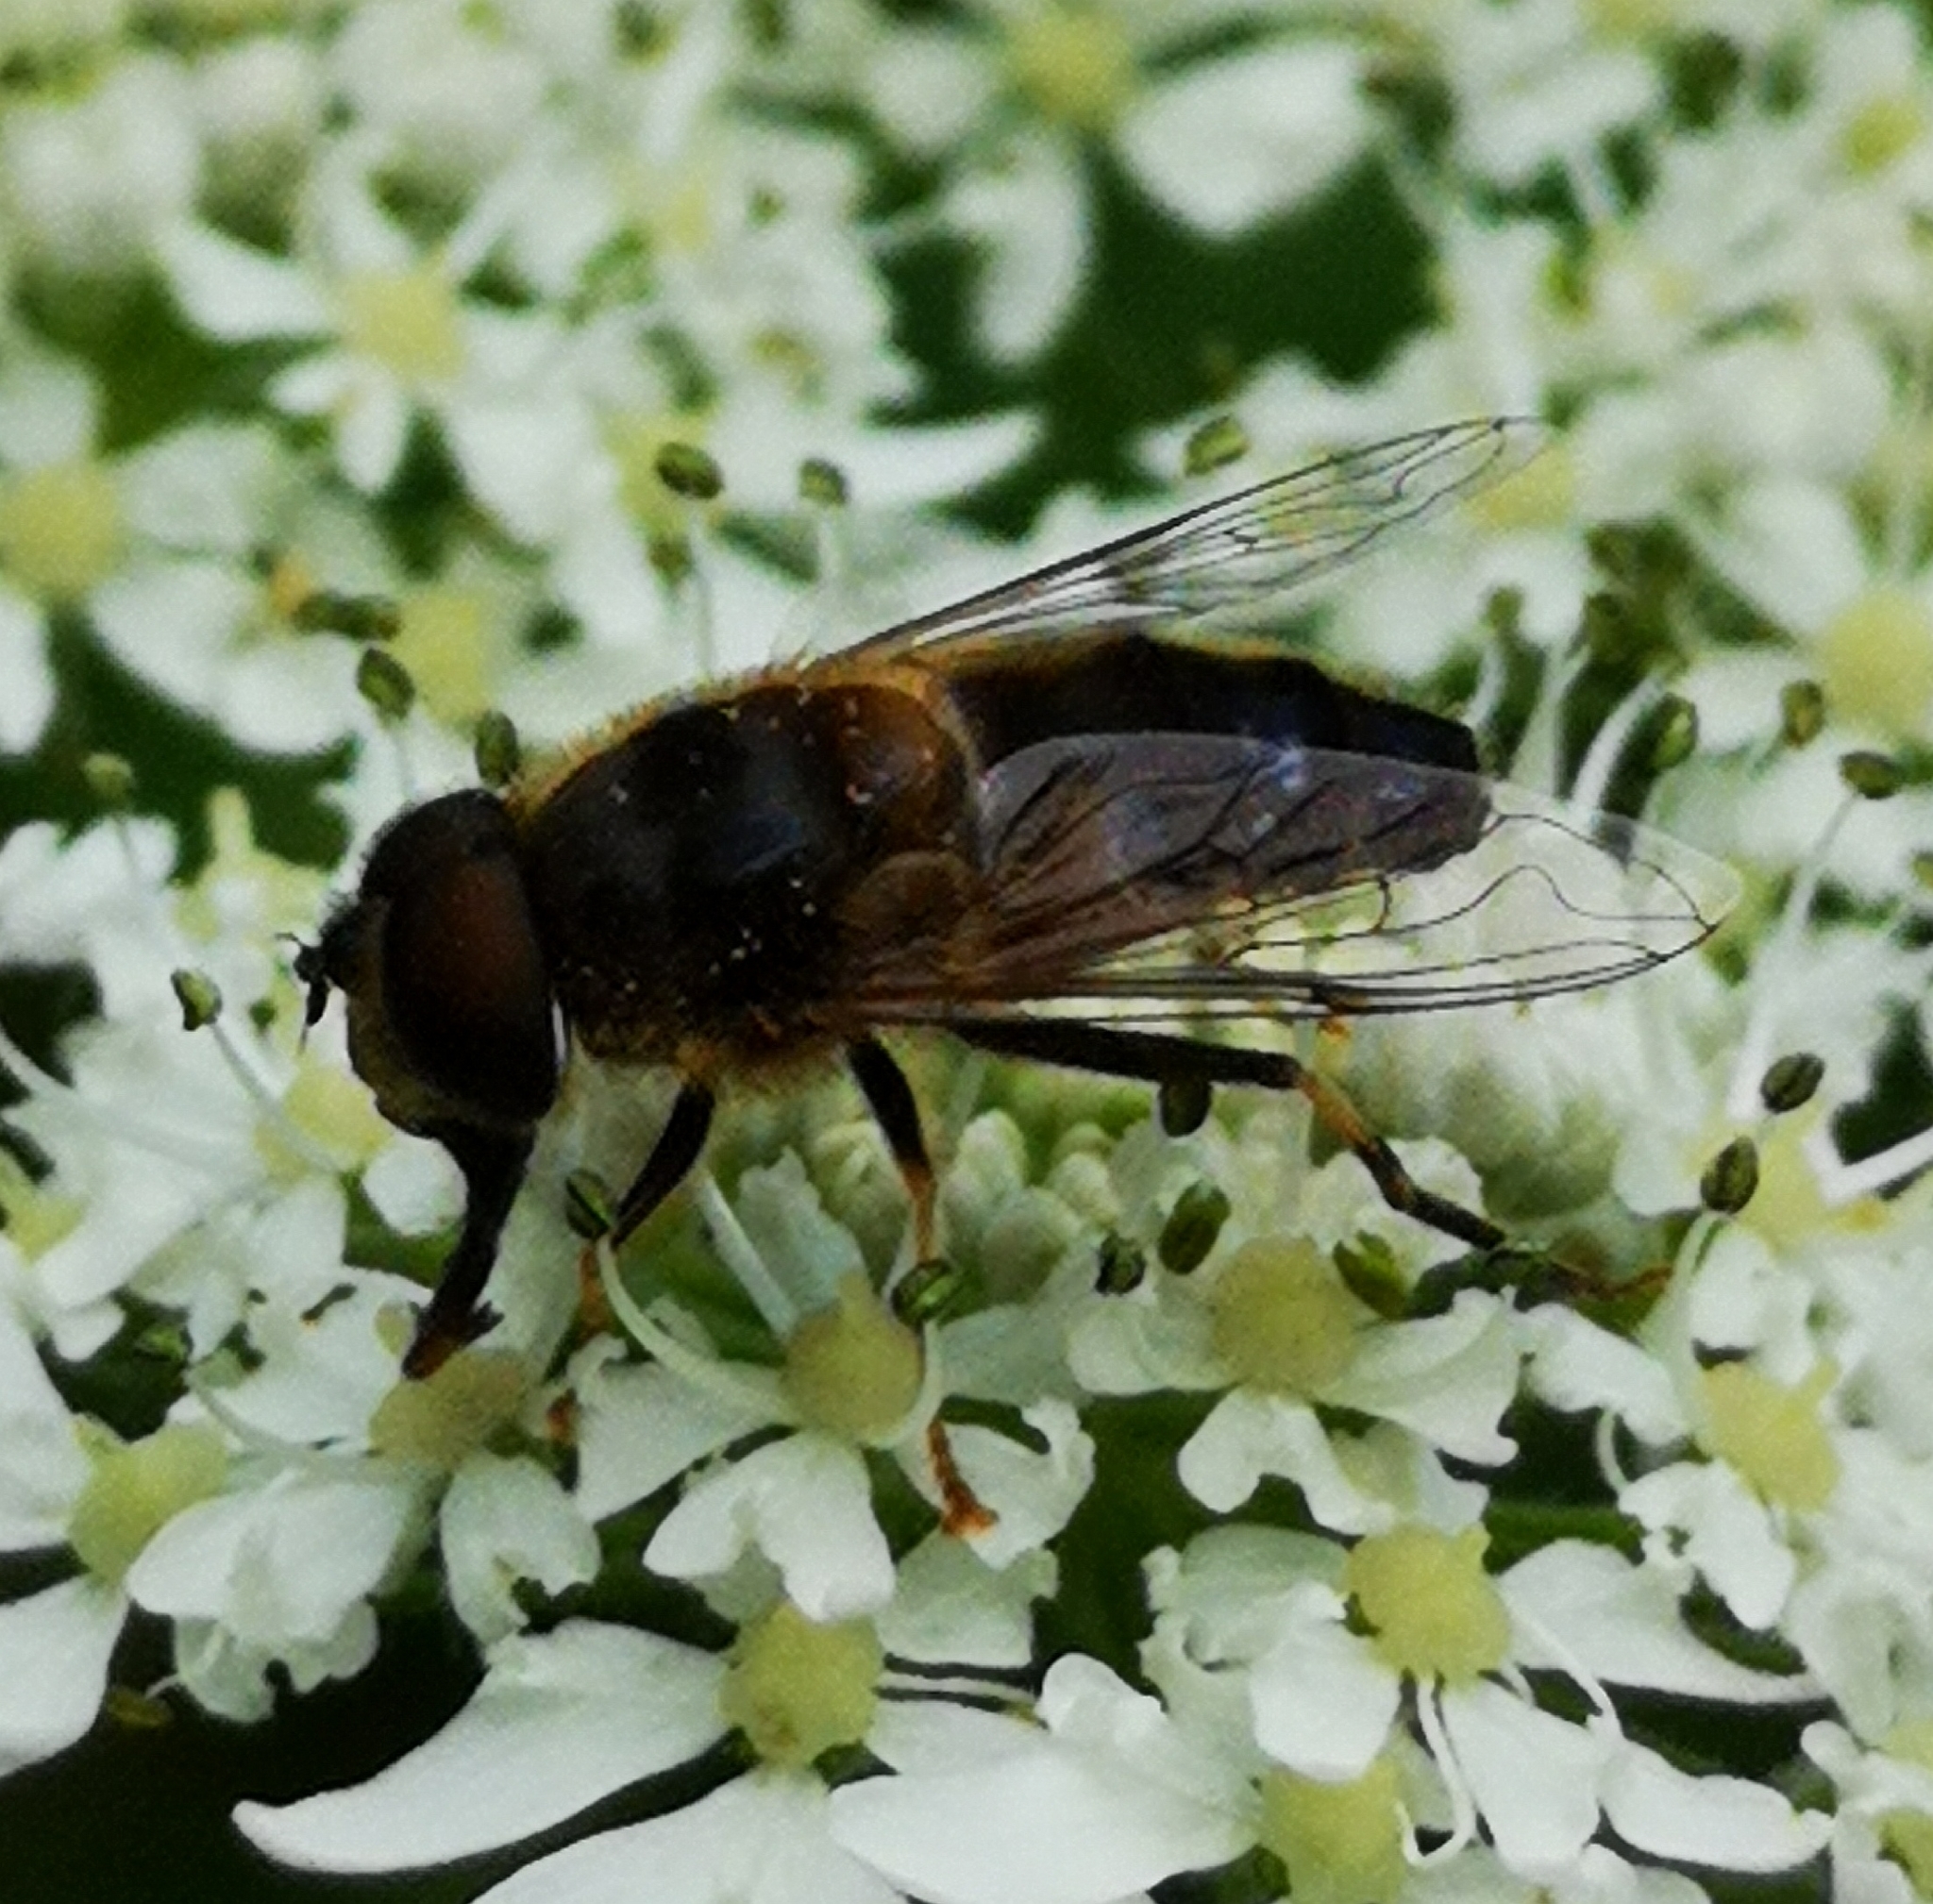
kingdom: Animalia
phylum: Arthropoda
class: Insecta
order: Diptera
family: Syrphidae
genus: Eristalis
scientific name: Eristalis pertinax
